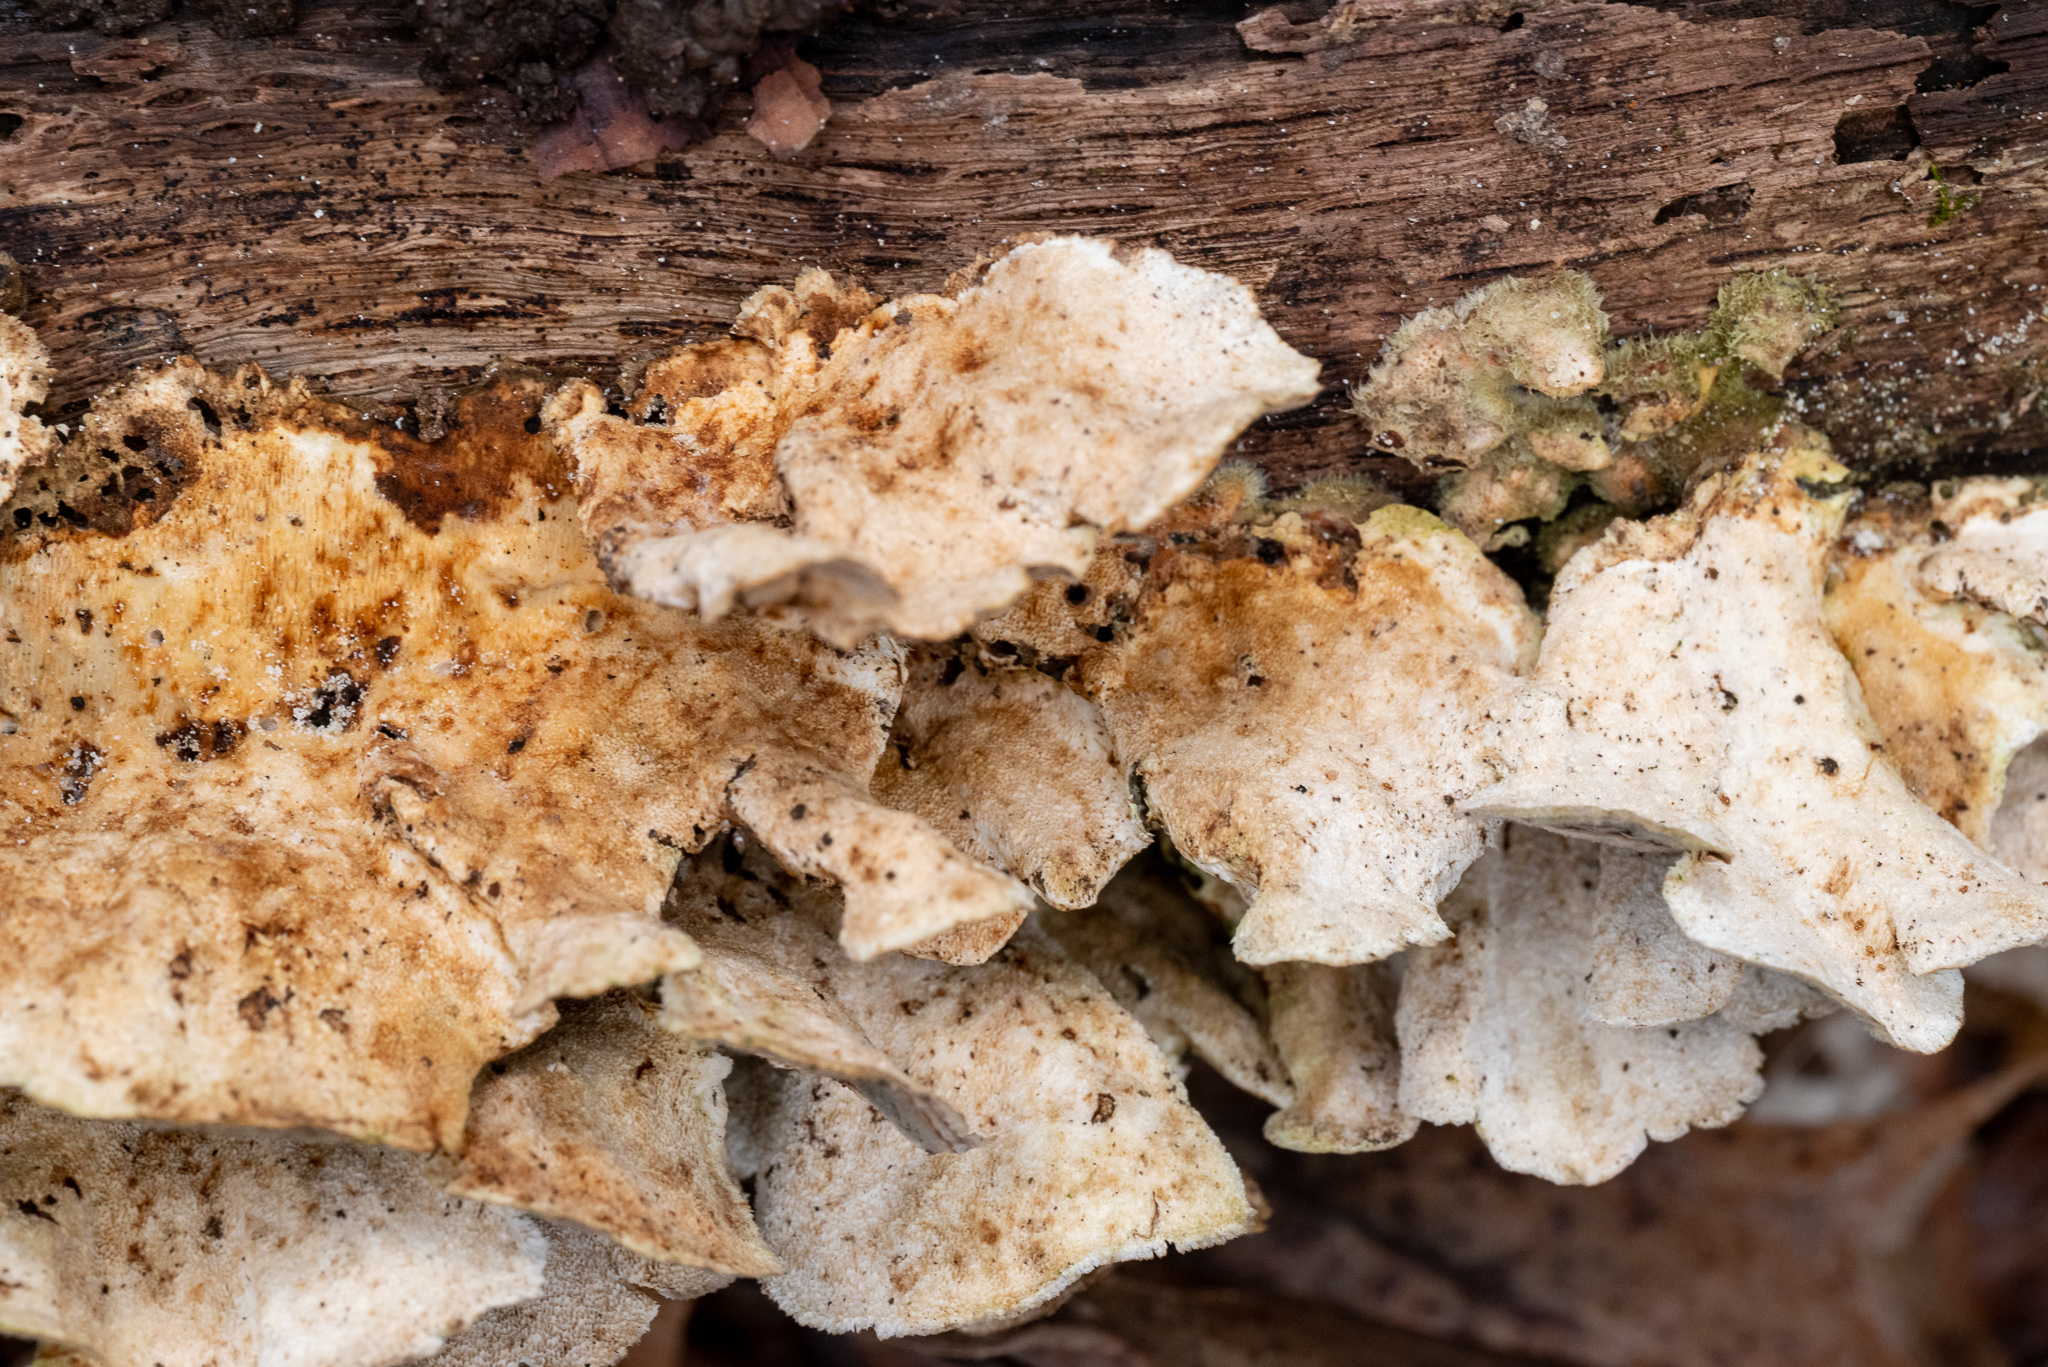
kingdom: Fungi
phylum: Basidiomycota
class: Agaricomycetes
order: Polyporales
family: Polyporaceae
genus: Trametes
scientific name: Trametes versicolor
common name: Turkeytail
